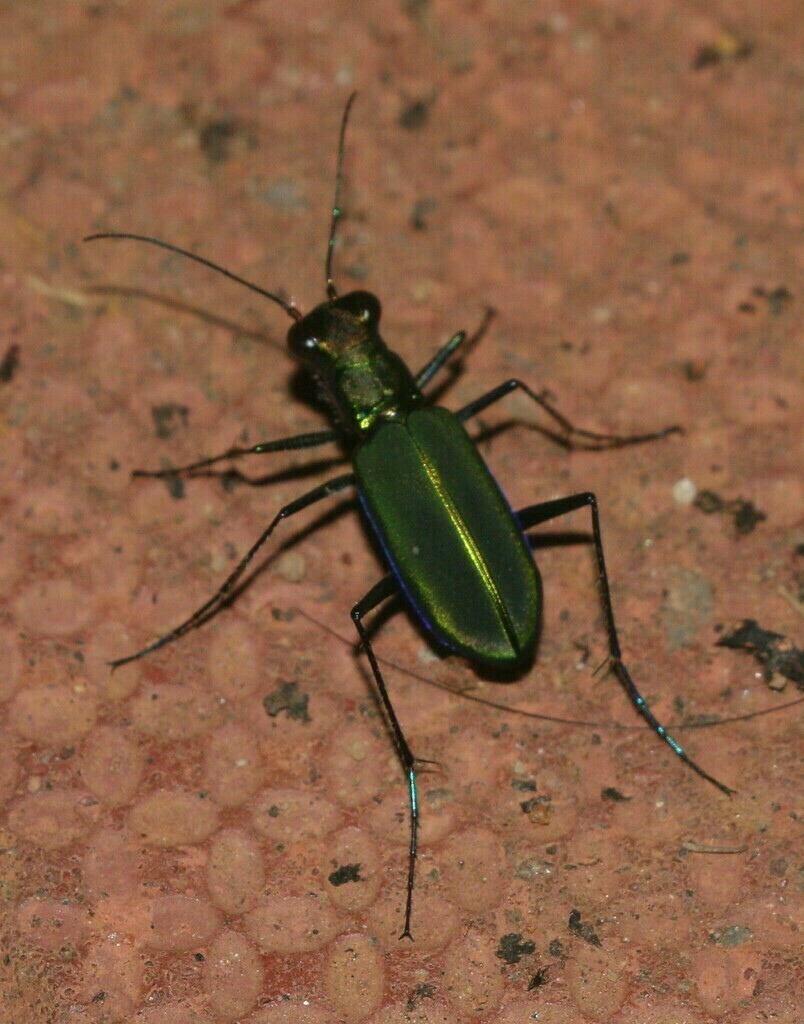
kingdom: Animalia
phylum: Arthropoda
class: Insecta
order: Coleoptera
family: Carabidae
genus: Cicindela
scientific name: Cicindela whithillii
